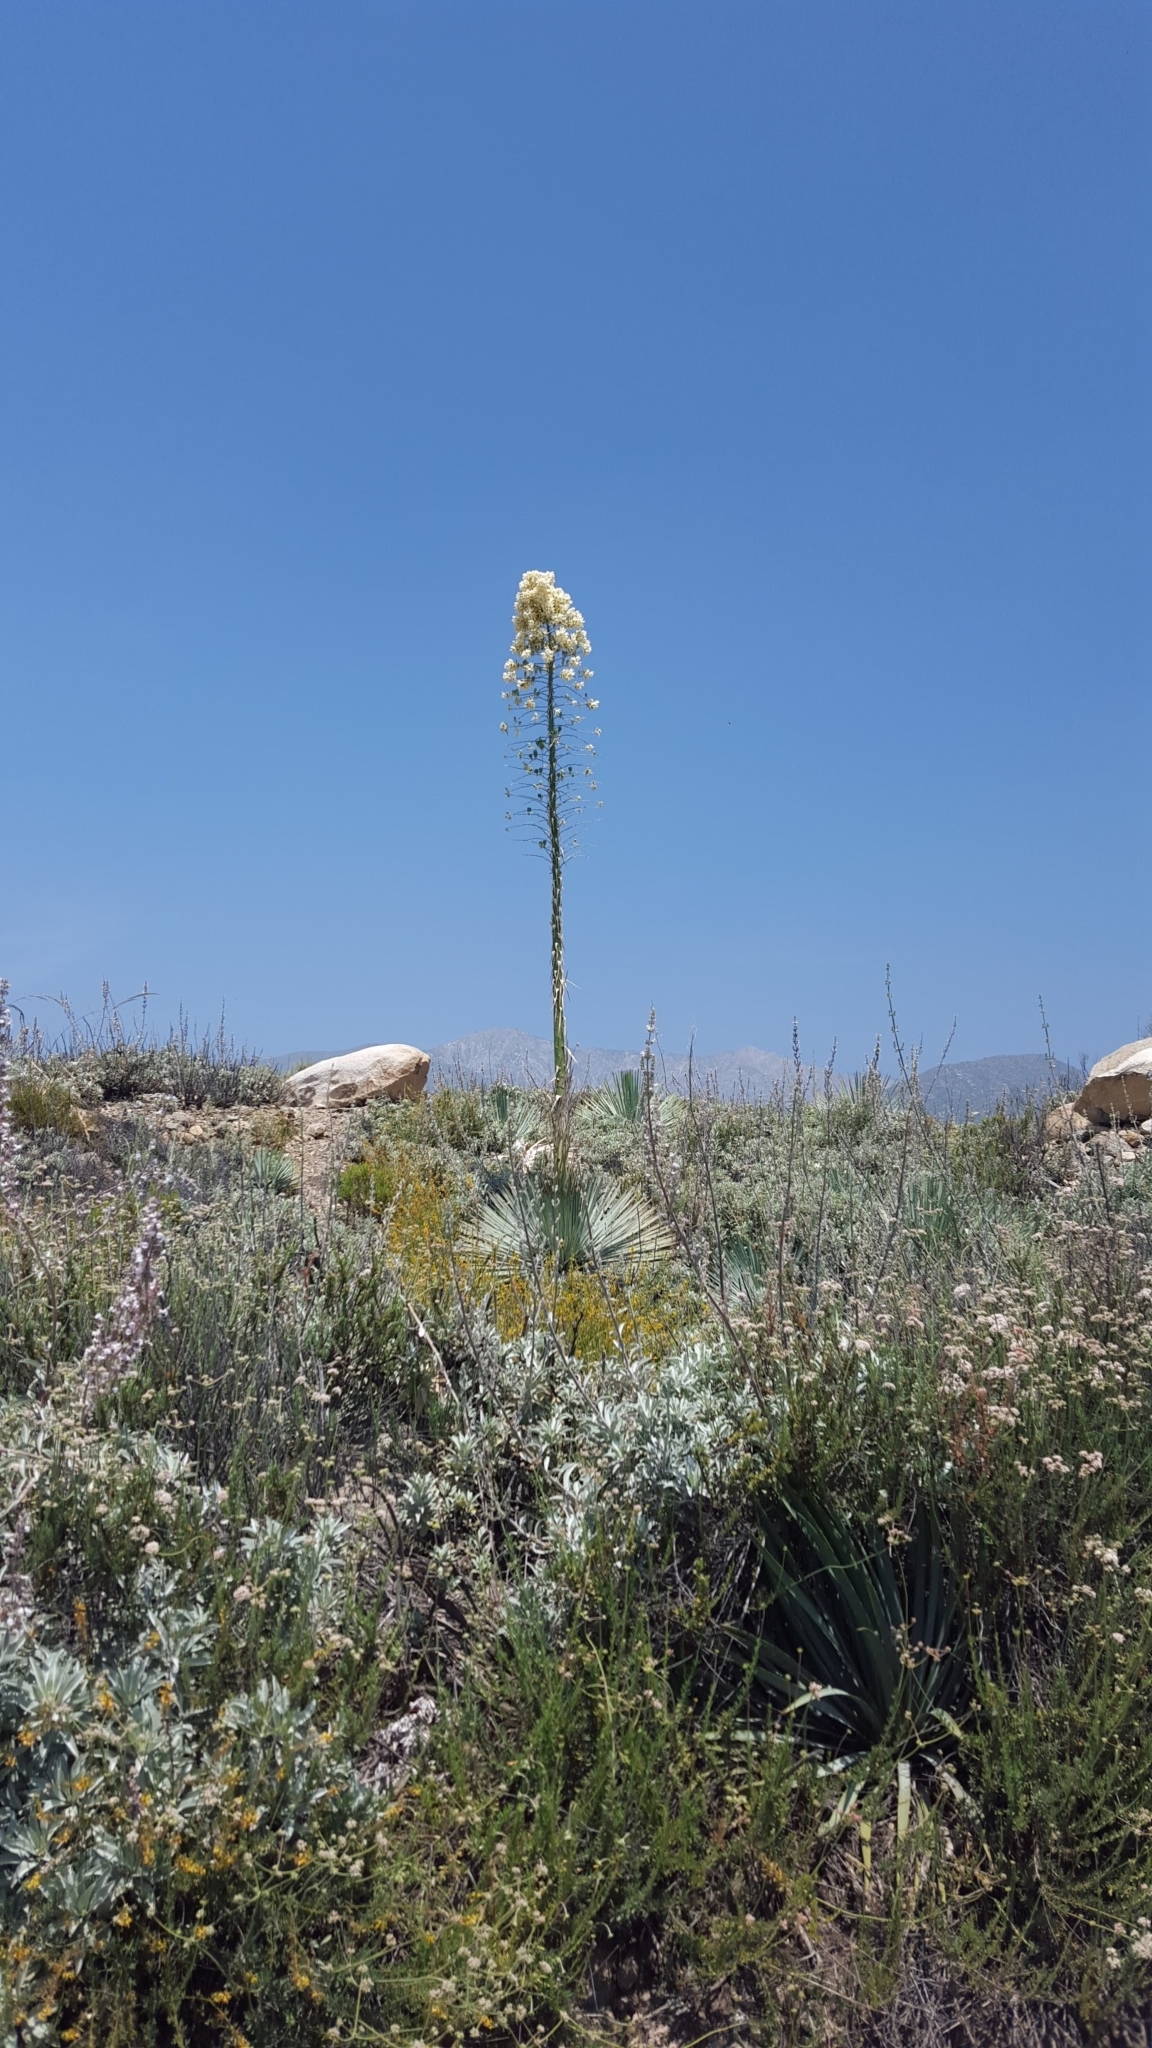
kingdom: Plantae
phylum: Tracheophyta
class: Liliopsida
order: Asparagales
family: Asparagaceae
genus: Hesperoyucca
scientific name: Hesperoyucca whipplei
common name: Our lord's-candle
